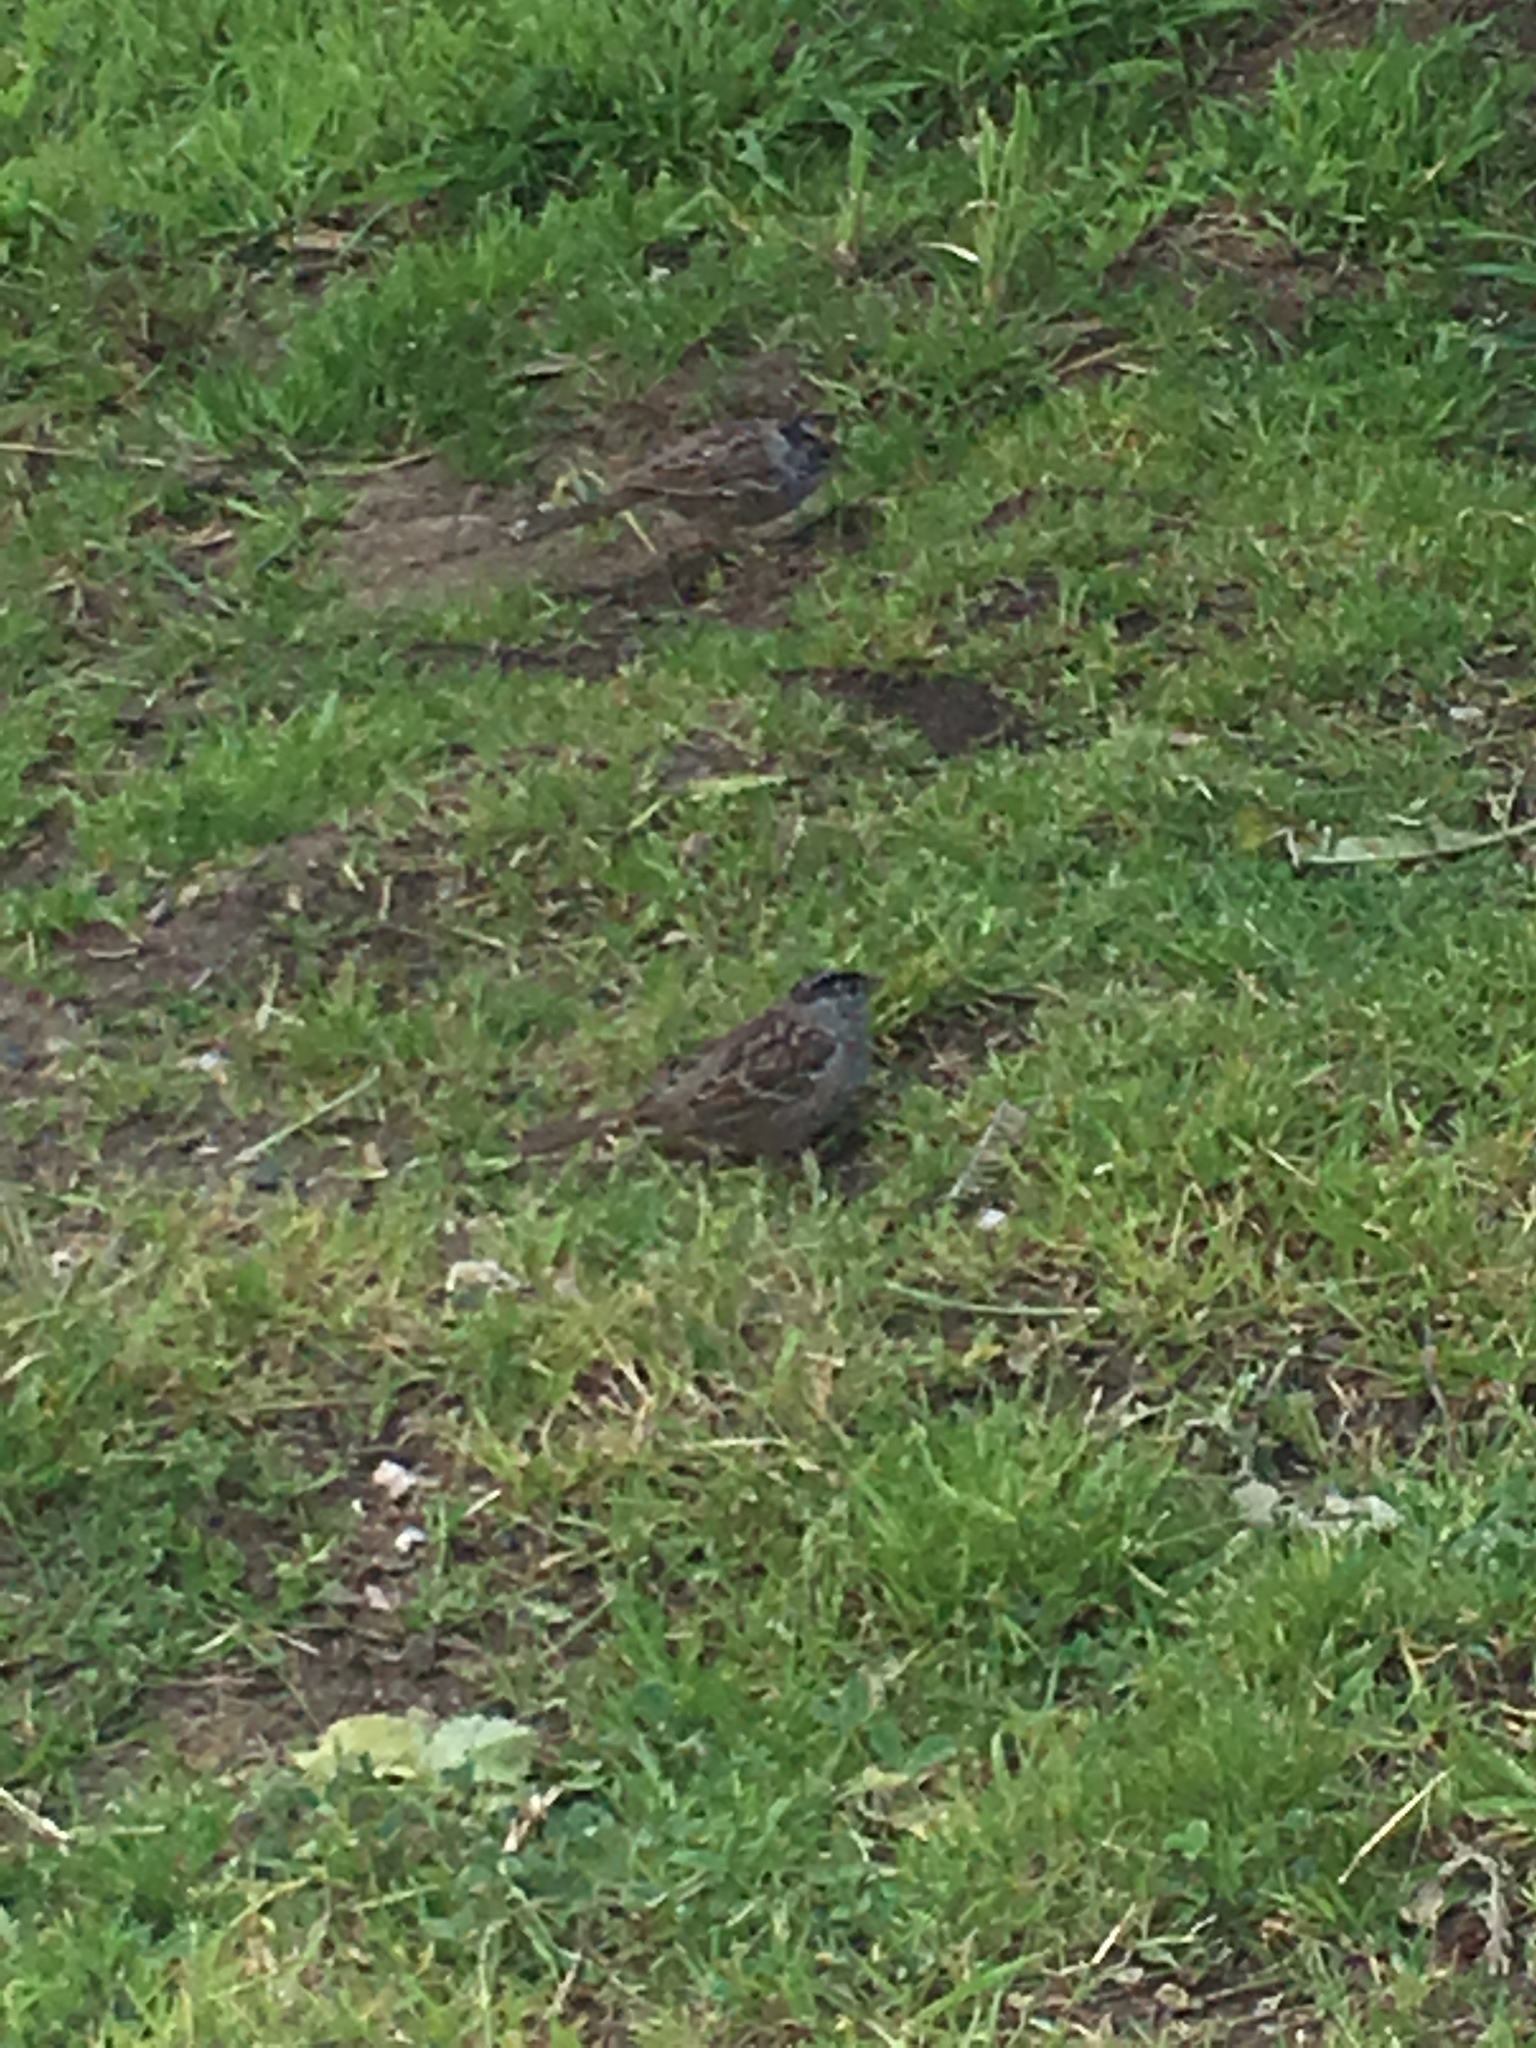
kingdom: Animalia
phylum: Chordata
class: Aves
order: Passeriformes
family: Passerellidae
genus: Zonotrichia
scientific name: Zonotrichia atricapilla
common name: Golden-crowned sparrow
